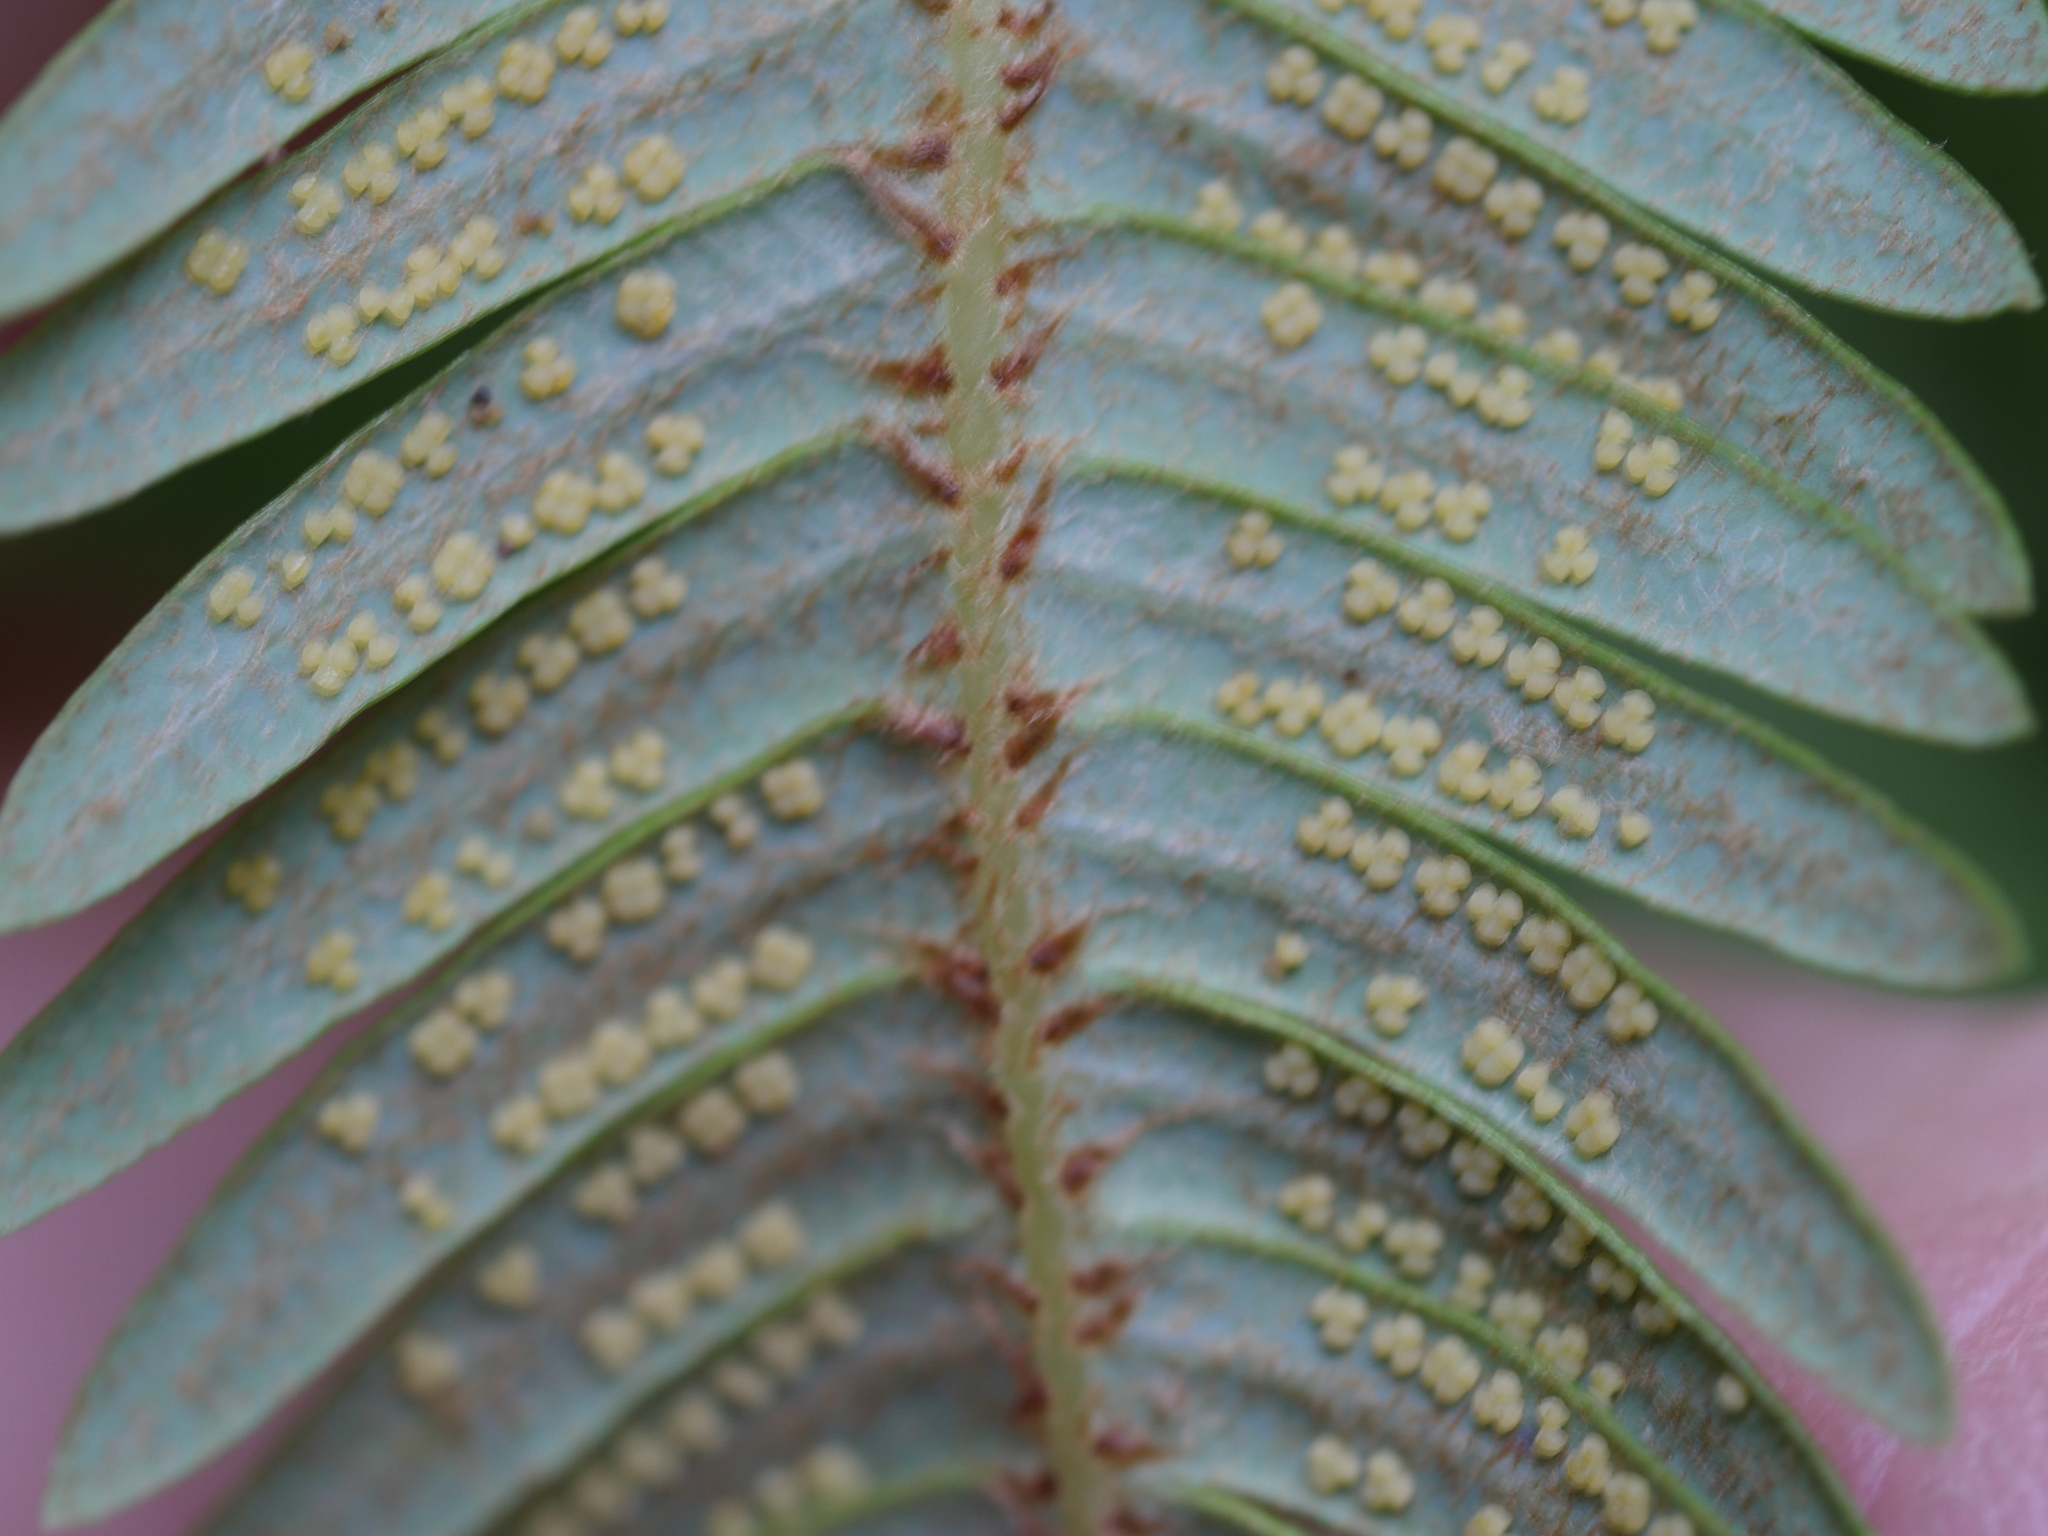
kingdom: Plantae
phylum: Tracheophyta
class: Polypodiopsida
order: Gleicheniales
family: Gleicheniaceae
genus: Sticherus
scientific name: Sticherus cunninghamii
